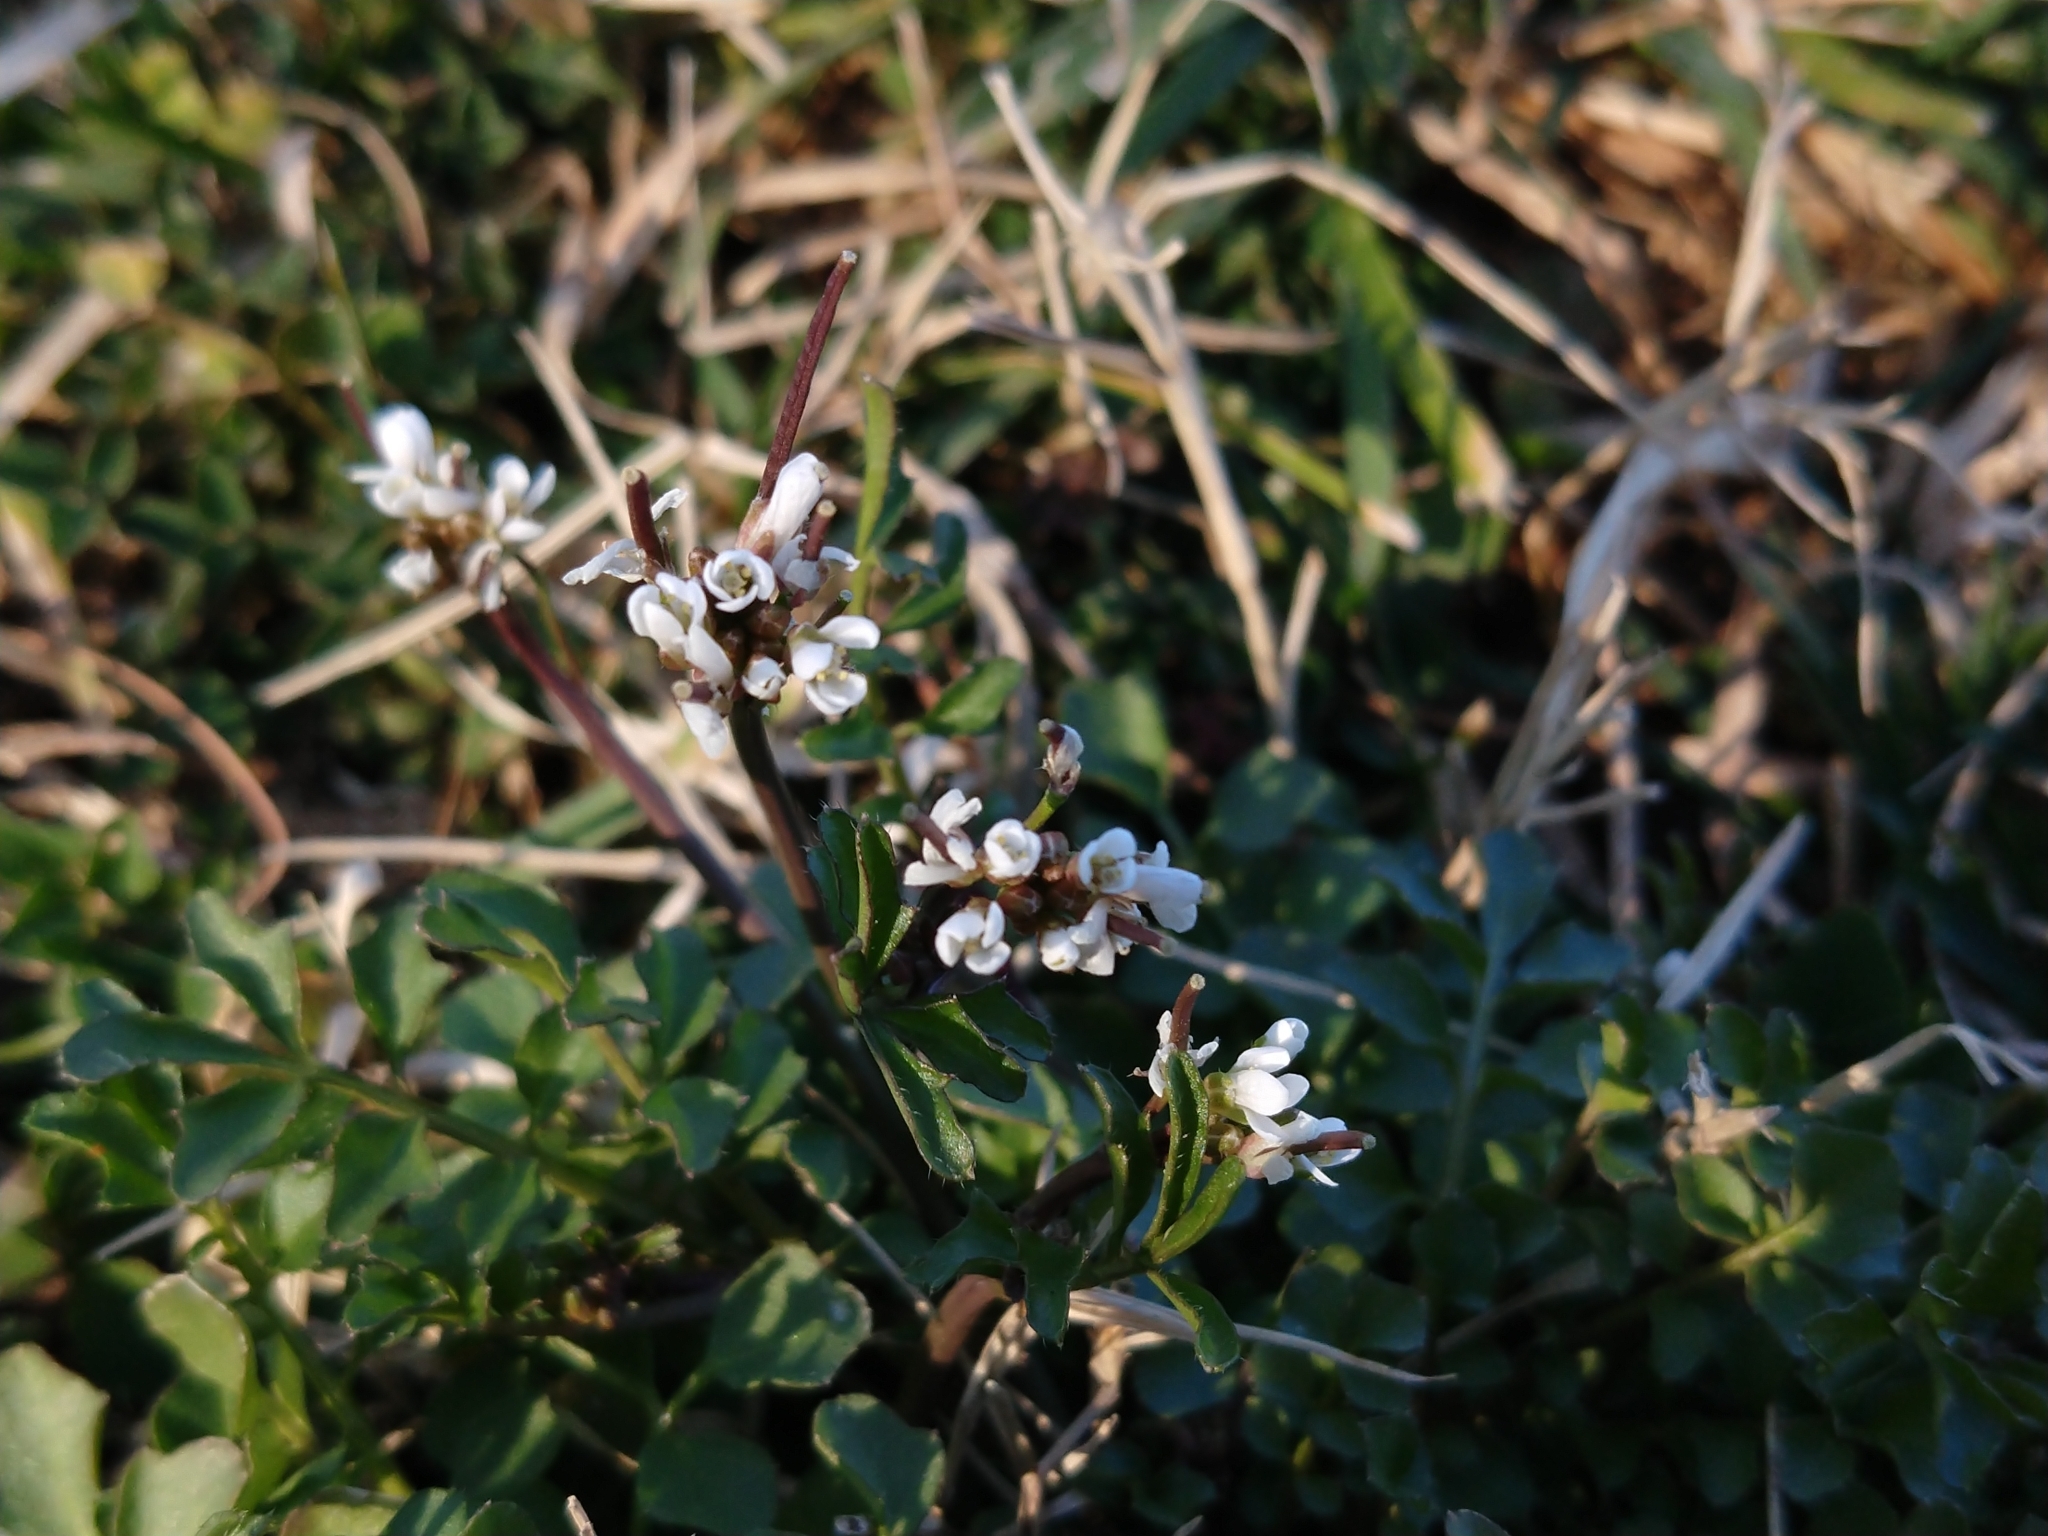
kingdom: Plantae
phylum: Tracheophyta
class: Magnoliopsida
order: Brassicales
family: Brassicaceae
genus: Cardamine
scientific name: Cardamine hirsuta
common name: Hairy bittercress
